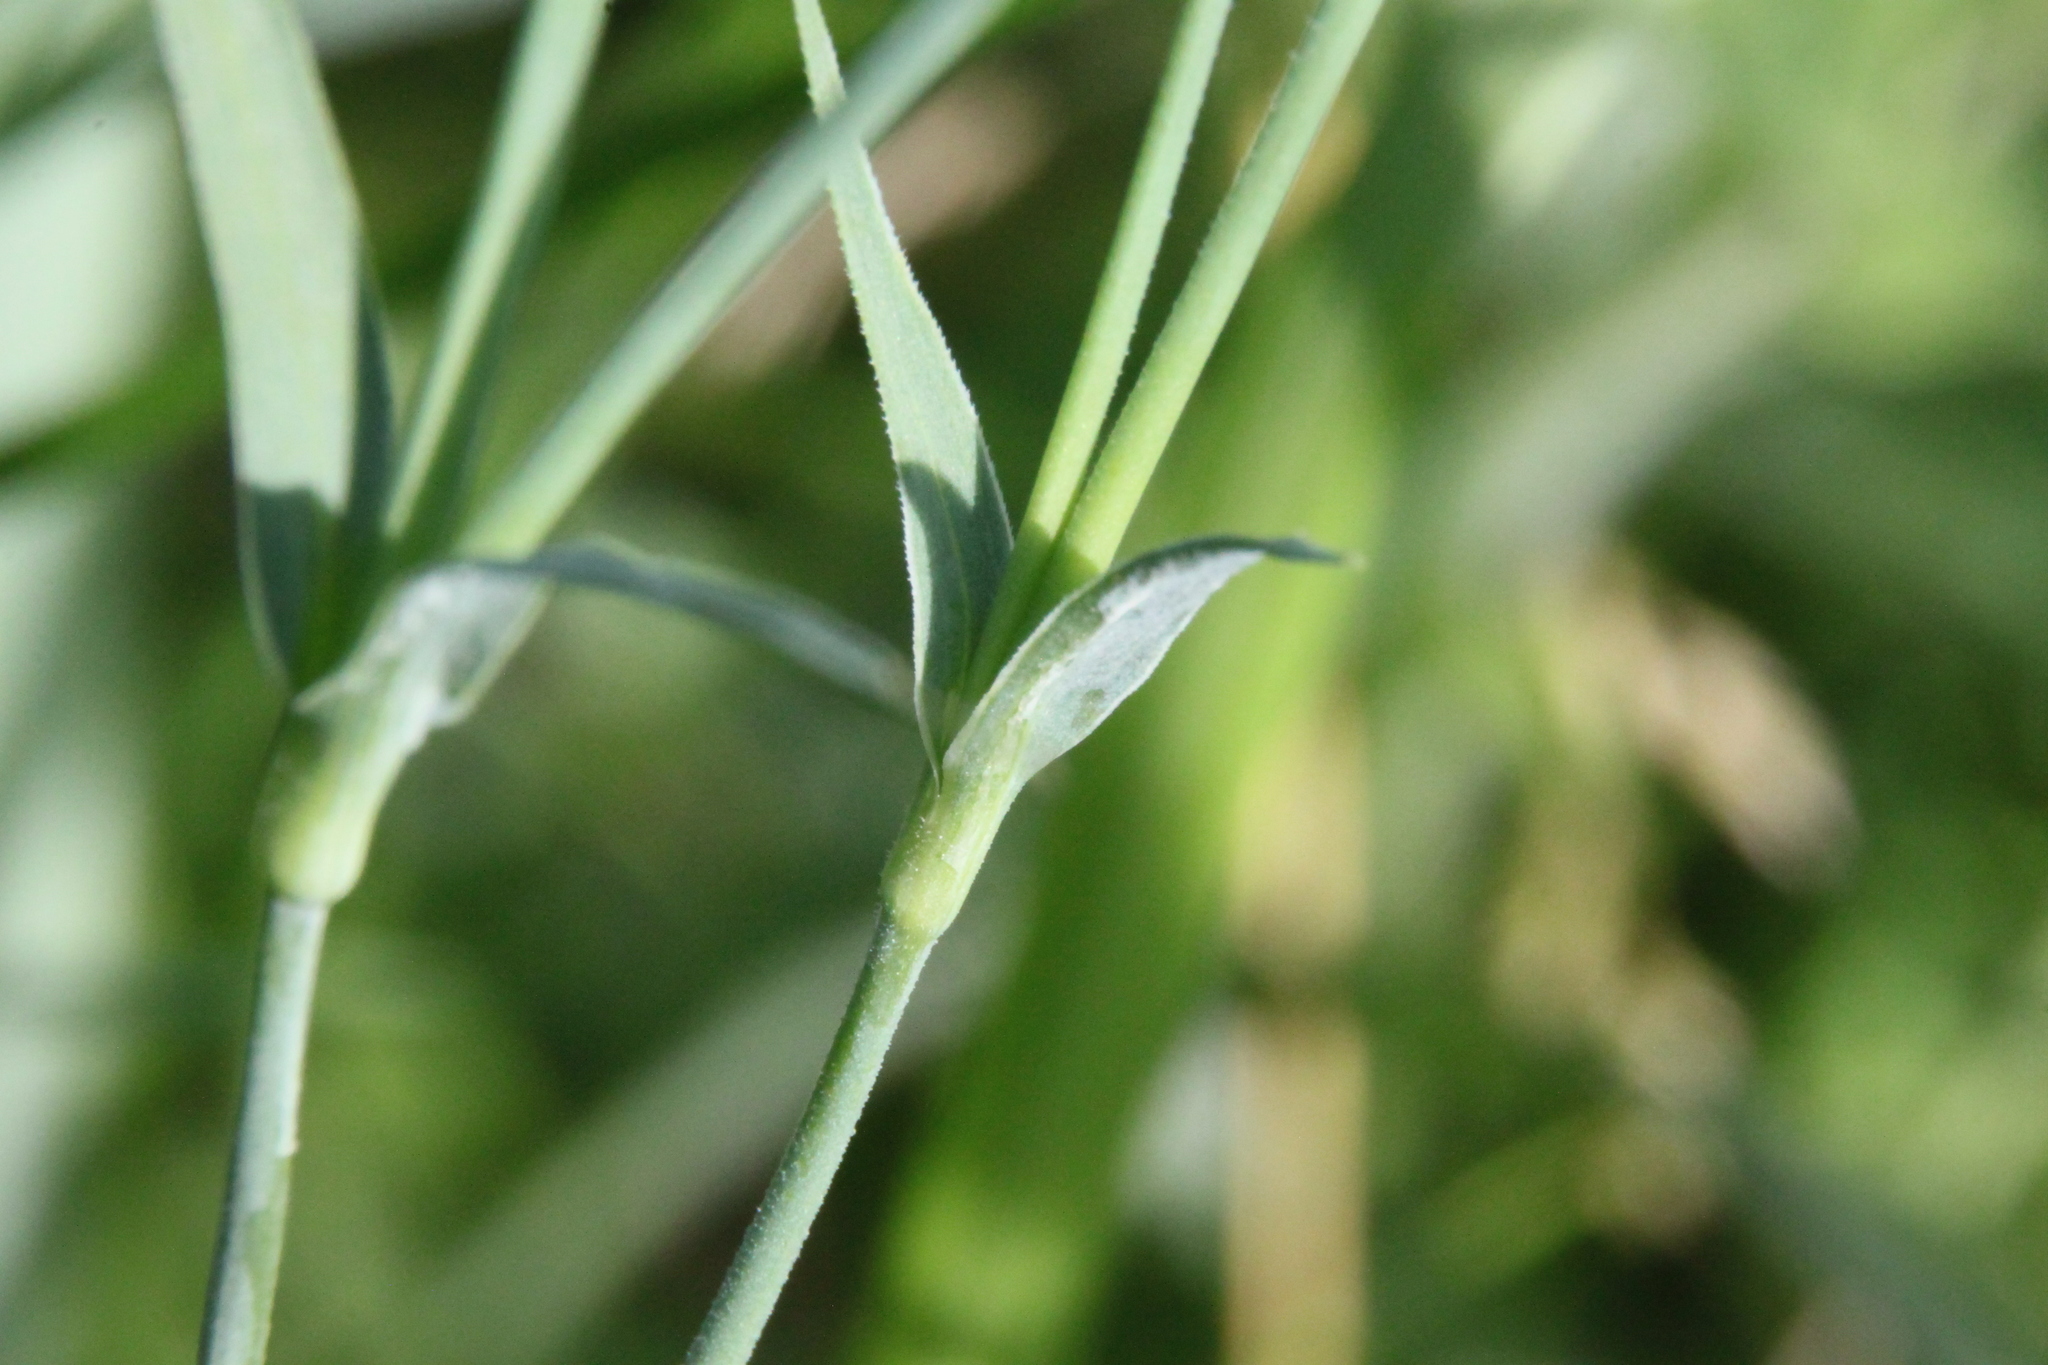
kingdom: Plantae
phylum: Tracheophyta
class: Magnoliopsida
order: Caryophyllales
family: Caryophyllaceae
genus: Dianthus
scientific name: Dianthus chinensis
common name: Rainbow pink
